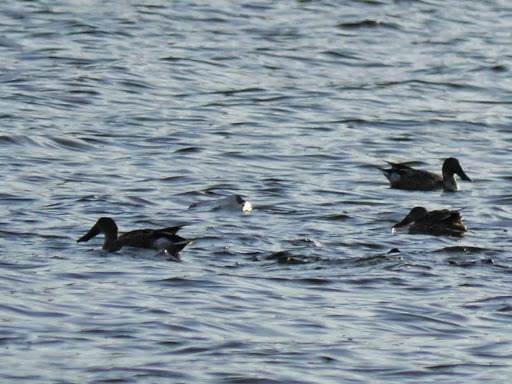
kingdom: Animalia
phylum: Chordata
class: Aves
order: Anseriformes
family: Anatidae
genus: Spatula
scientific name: Spatula clypeata
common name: Northern shoveler
